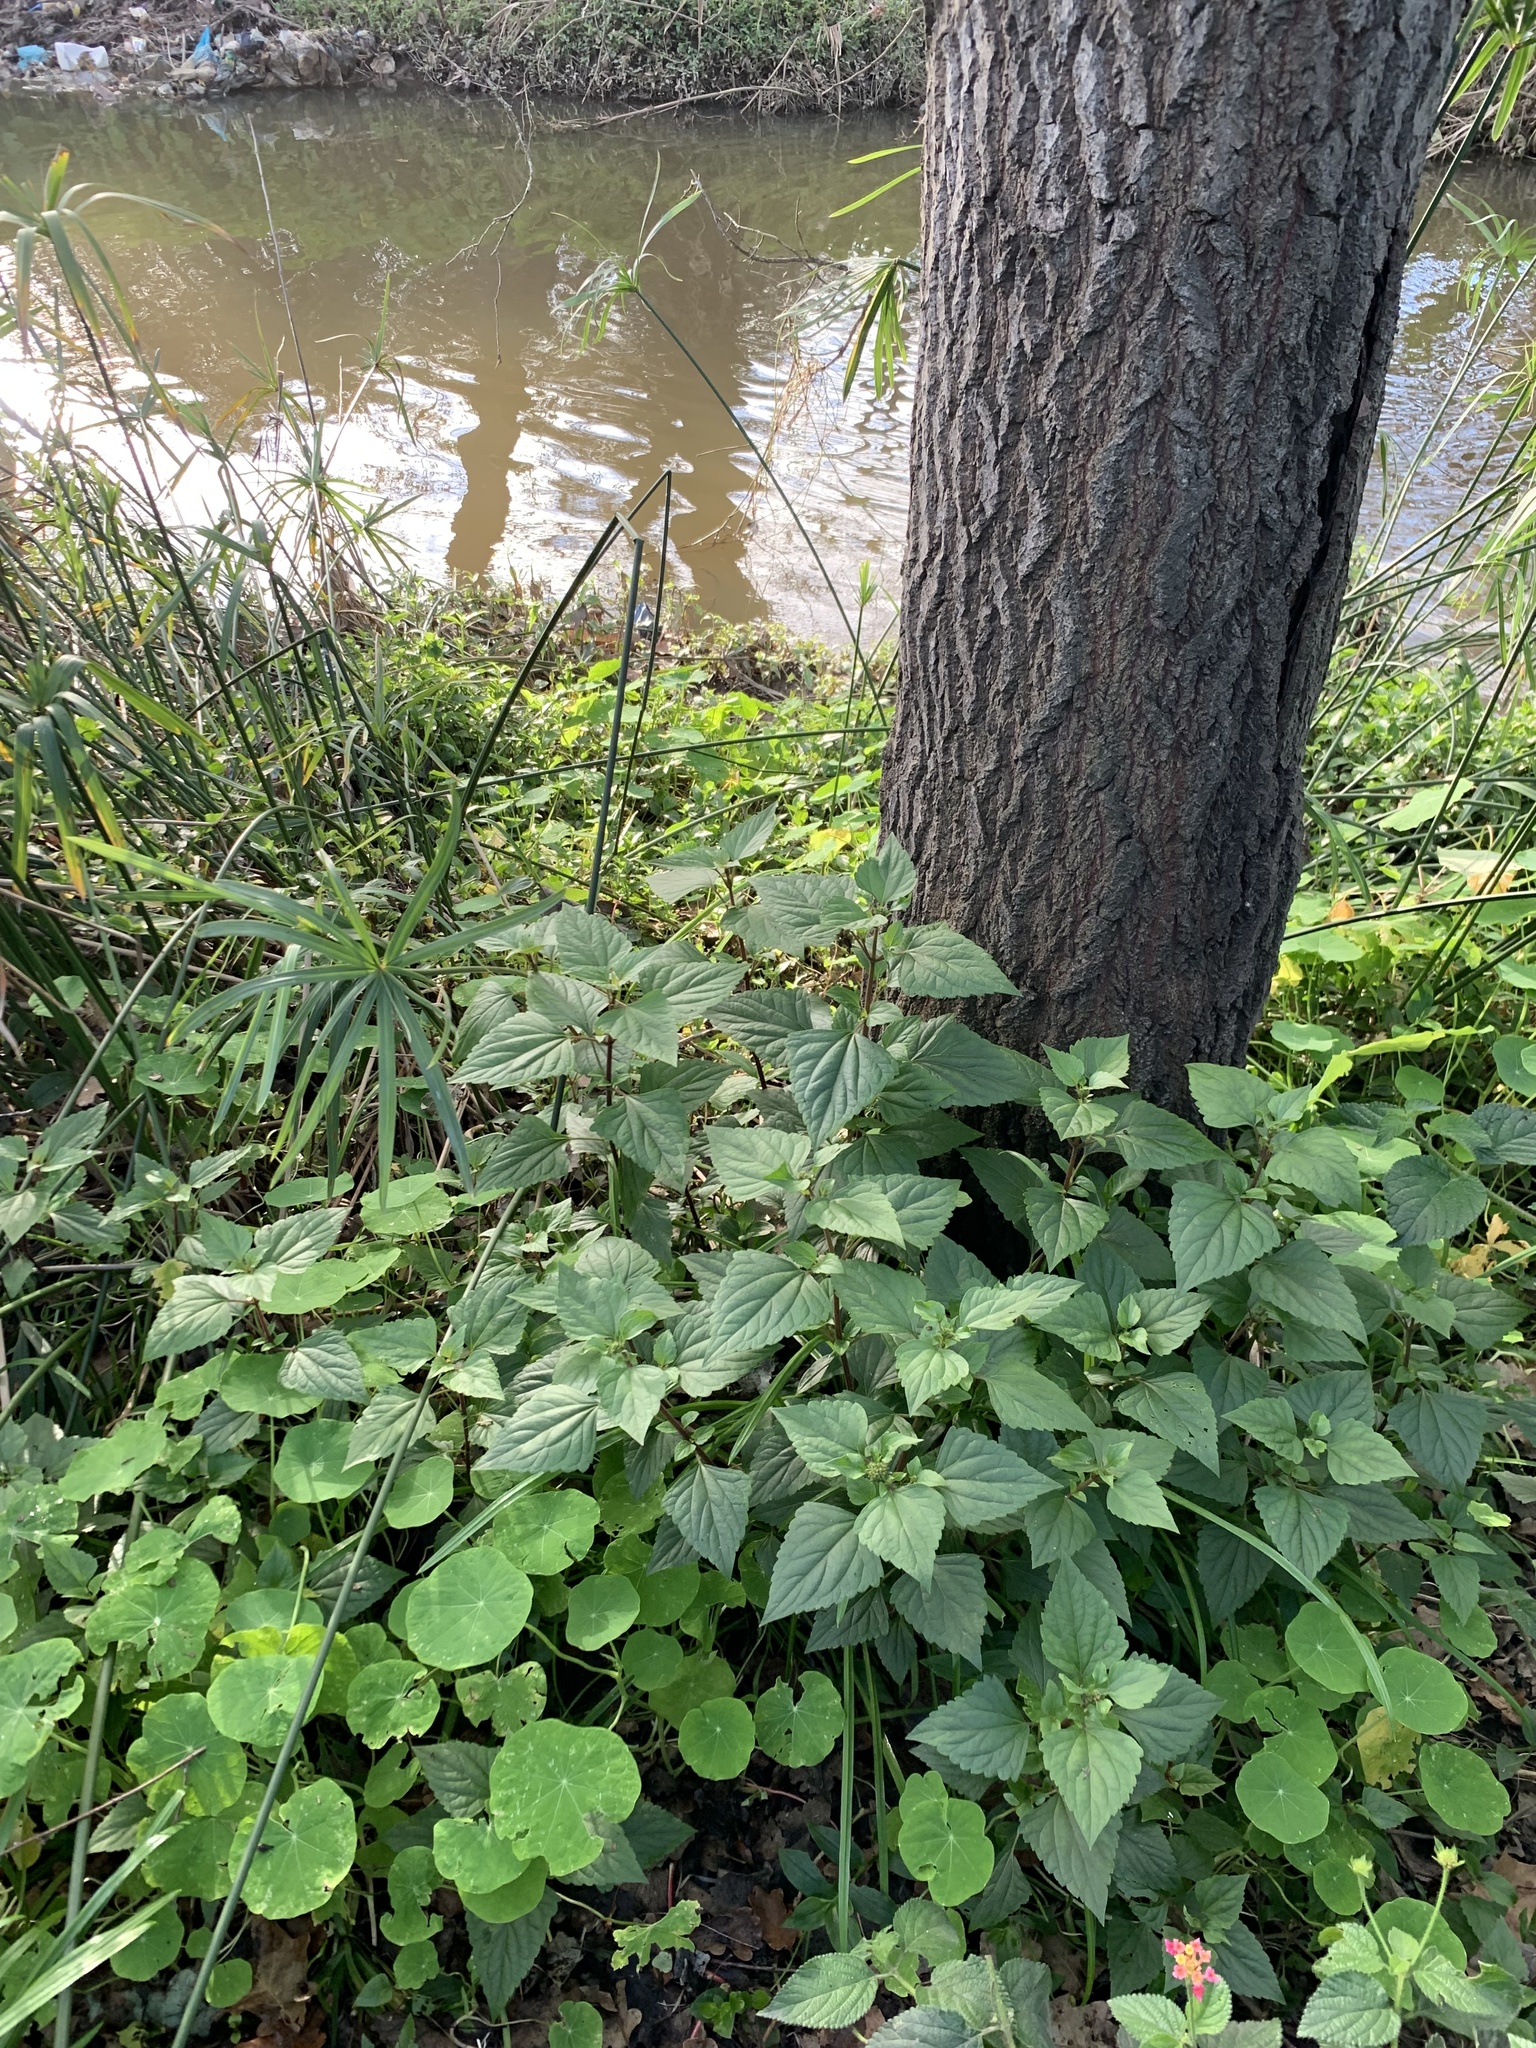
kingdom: Plantae
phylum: Tracheophyta
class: Magnoliopsida
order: Asterales
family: Asteraceae
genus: Ageratina
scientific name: Ageratina adenophora
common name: Sticky snakeroot
